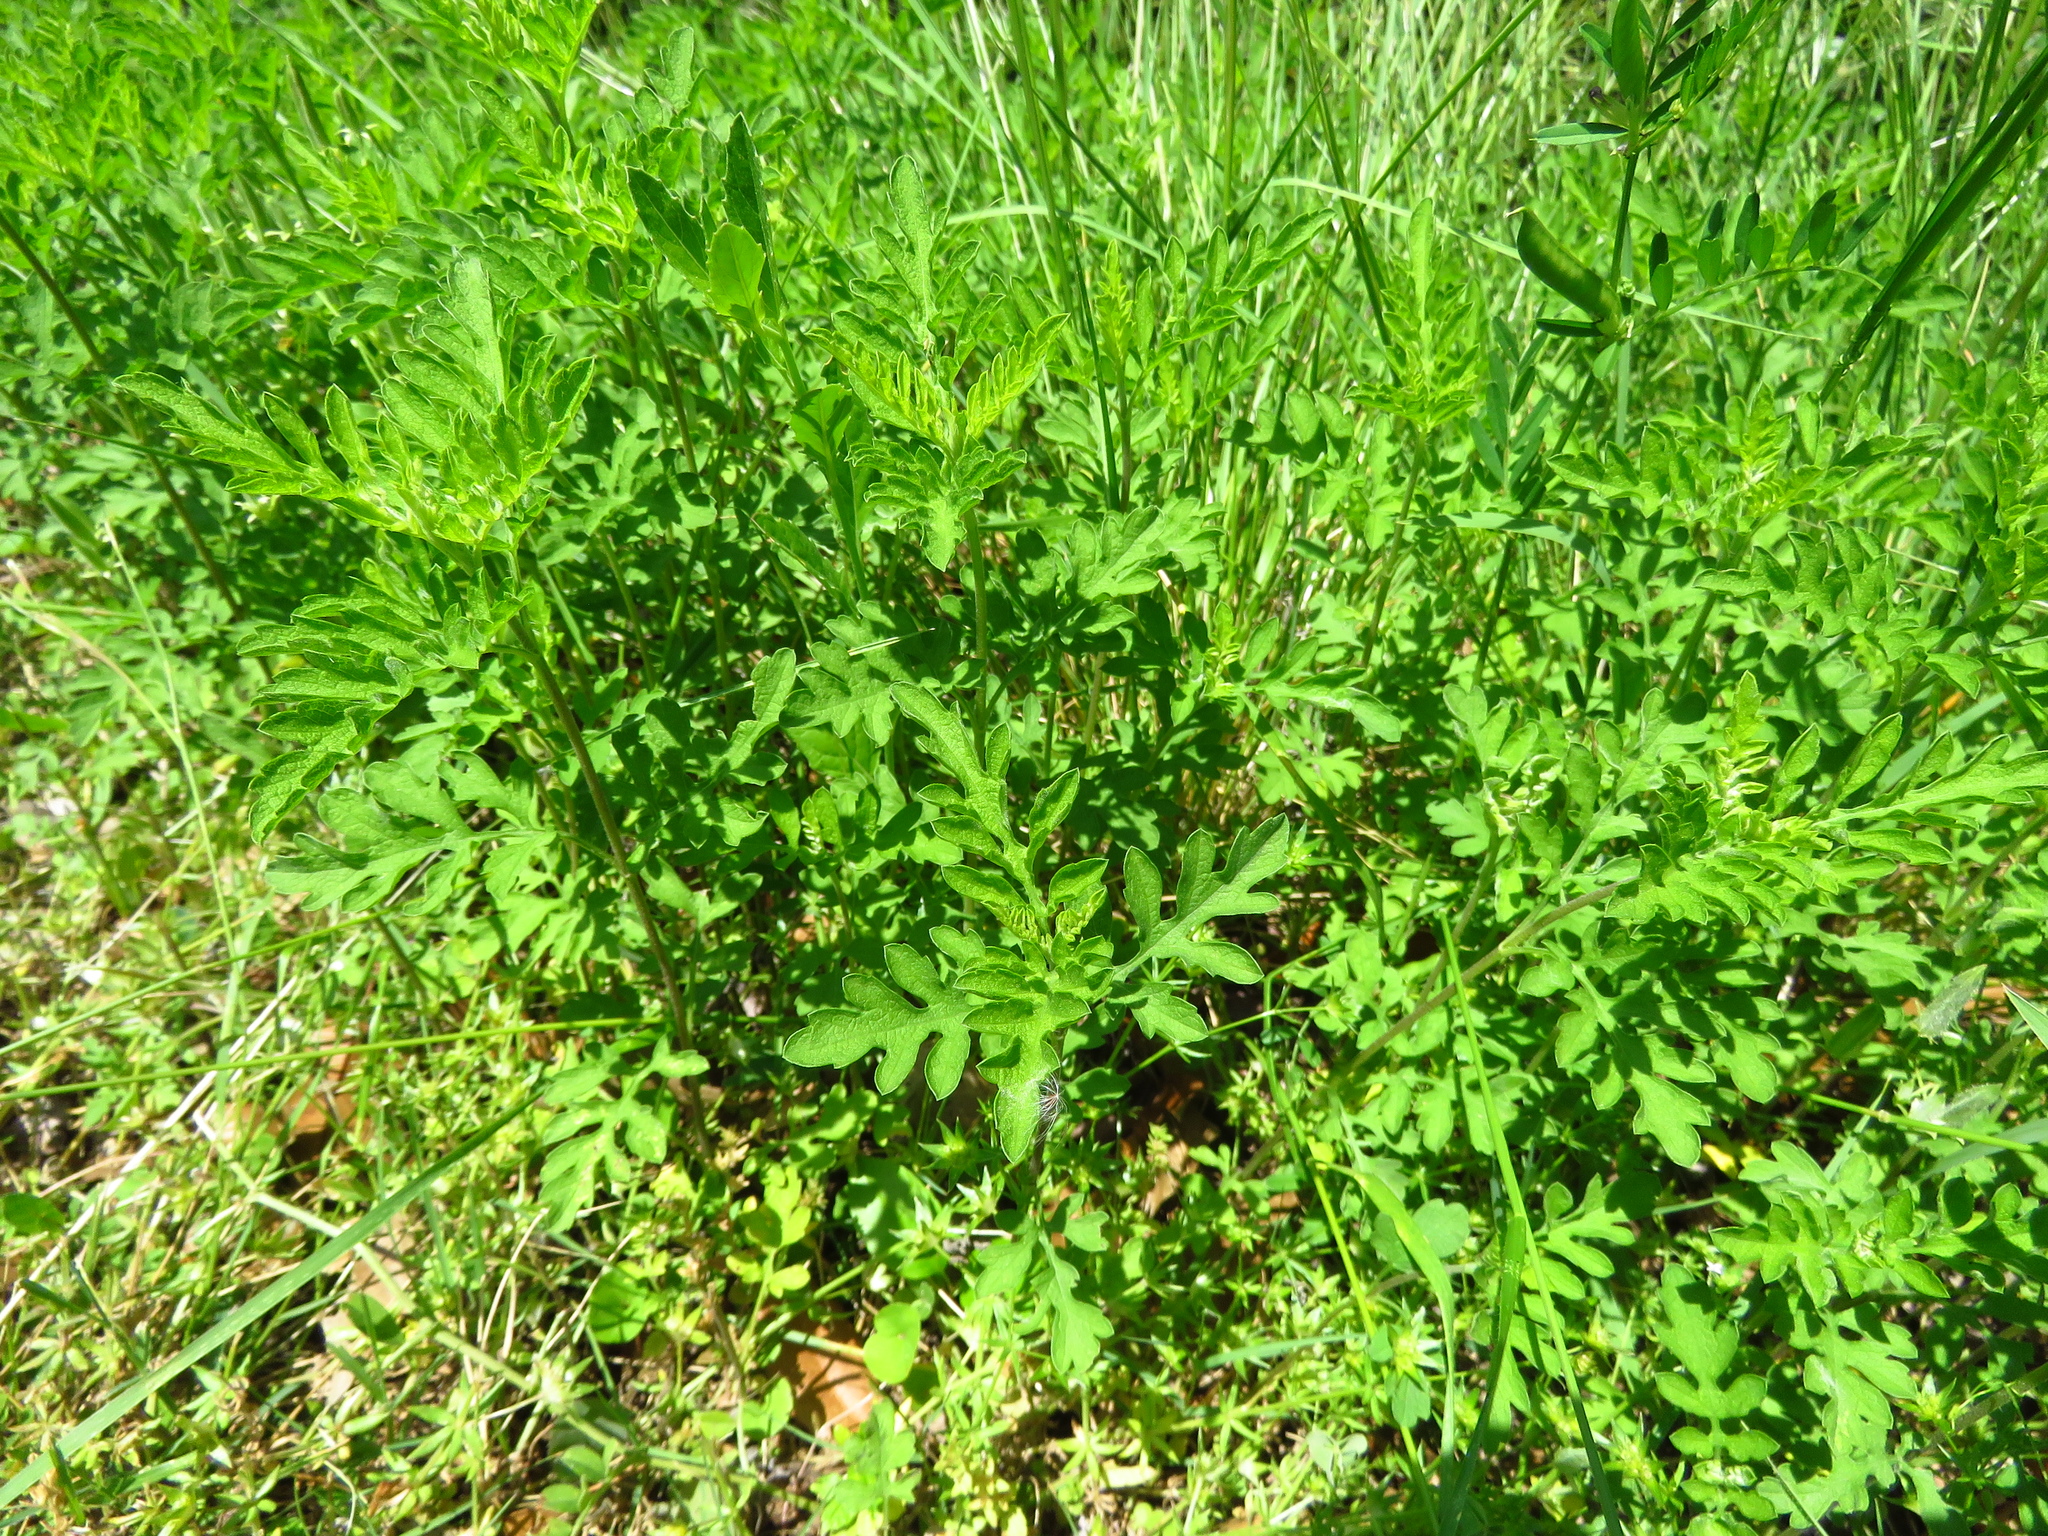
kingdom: Plantae
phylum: Tracheophyta
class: Magnoliopsida
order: Asterales
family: Asteraceae
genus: Ambrosia
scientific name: Ambrosia psilostachya
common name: Perennial ragweed
